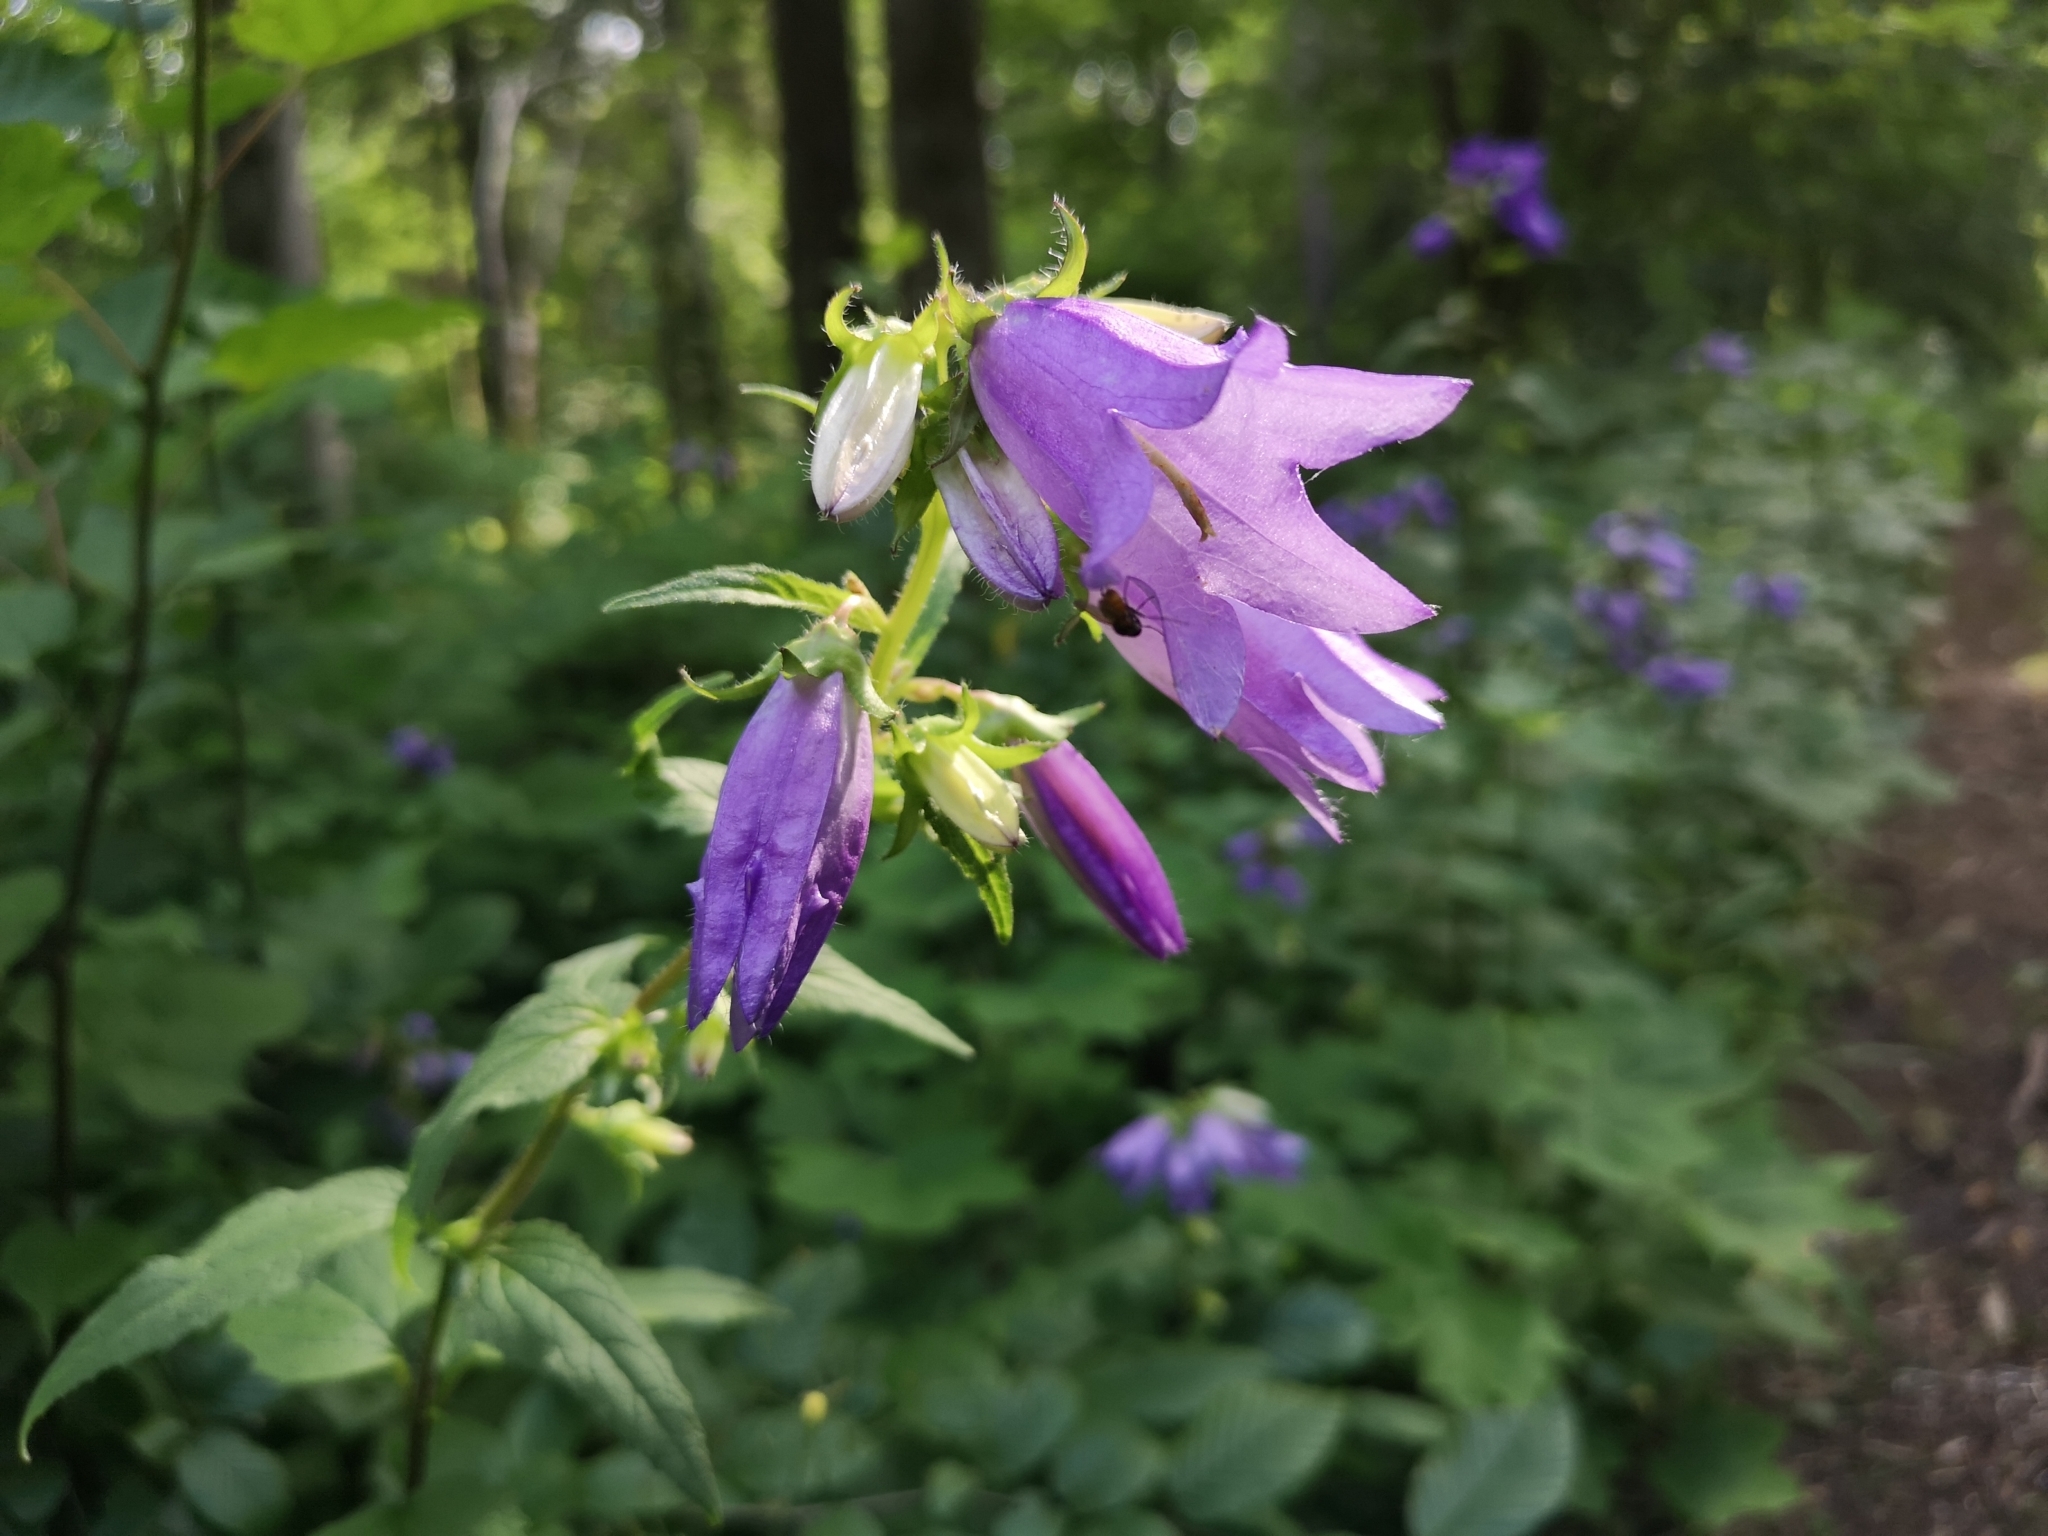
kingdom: Plantae
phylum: Tracheophyta
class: Magnoliopsida
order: Asterales
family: Campanulaceae
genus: Campanula
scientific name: Campanula trachelium
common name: Nettle-leaved bellflower
